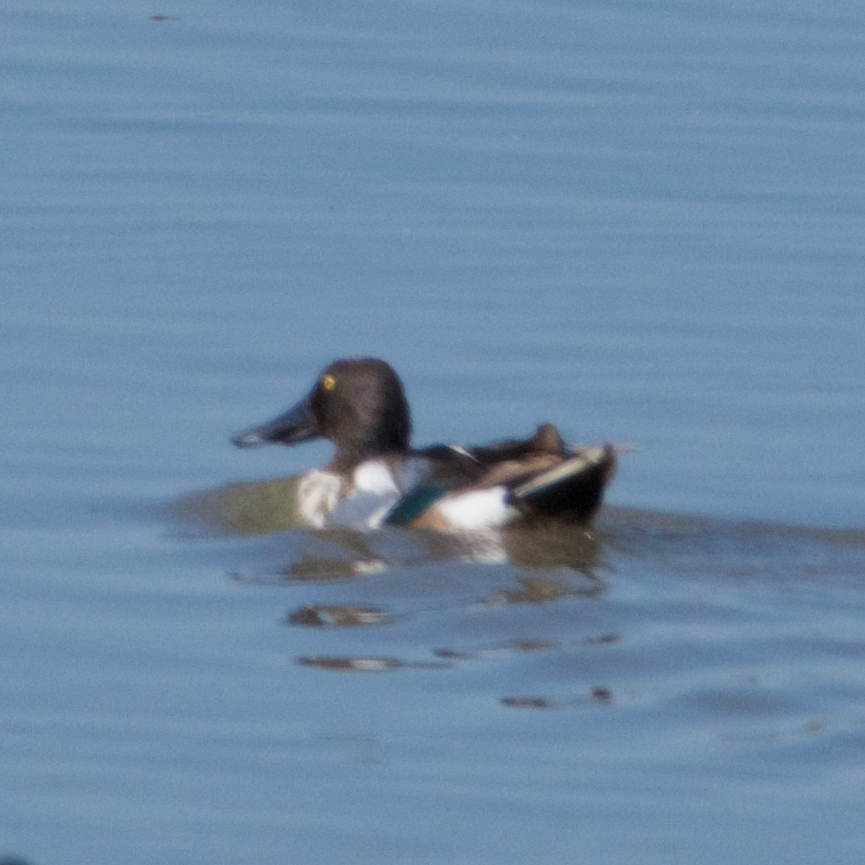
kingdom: Animalia
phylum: Chordata
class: Aves
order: Anseriformes
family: Anatidae
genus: Spatula
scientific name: Spatula clypeata
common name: Northern shoveler
